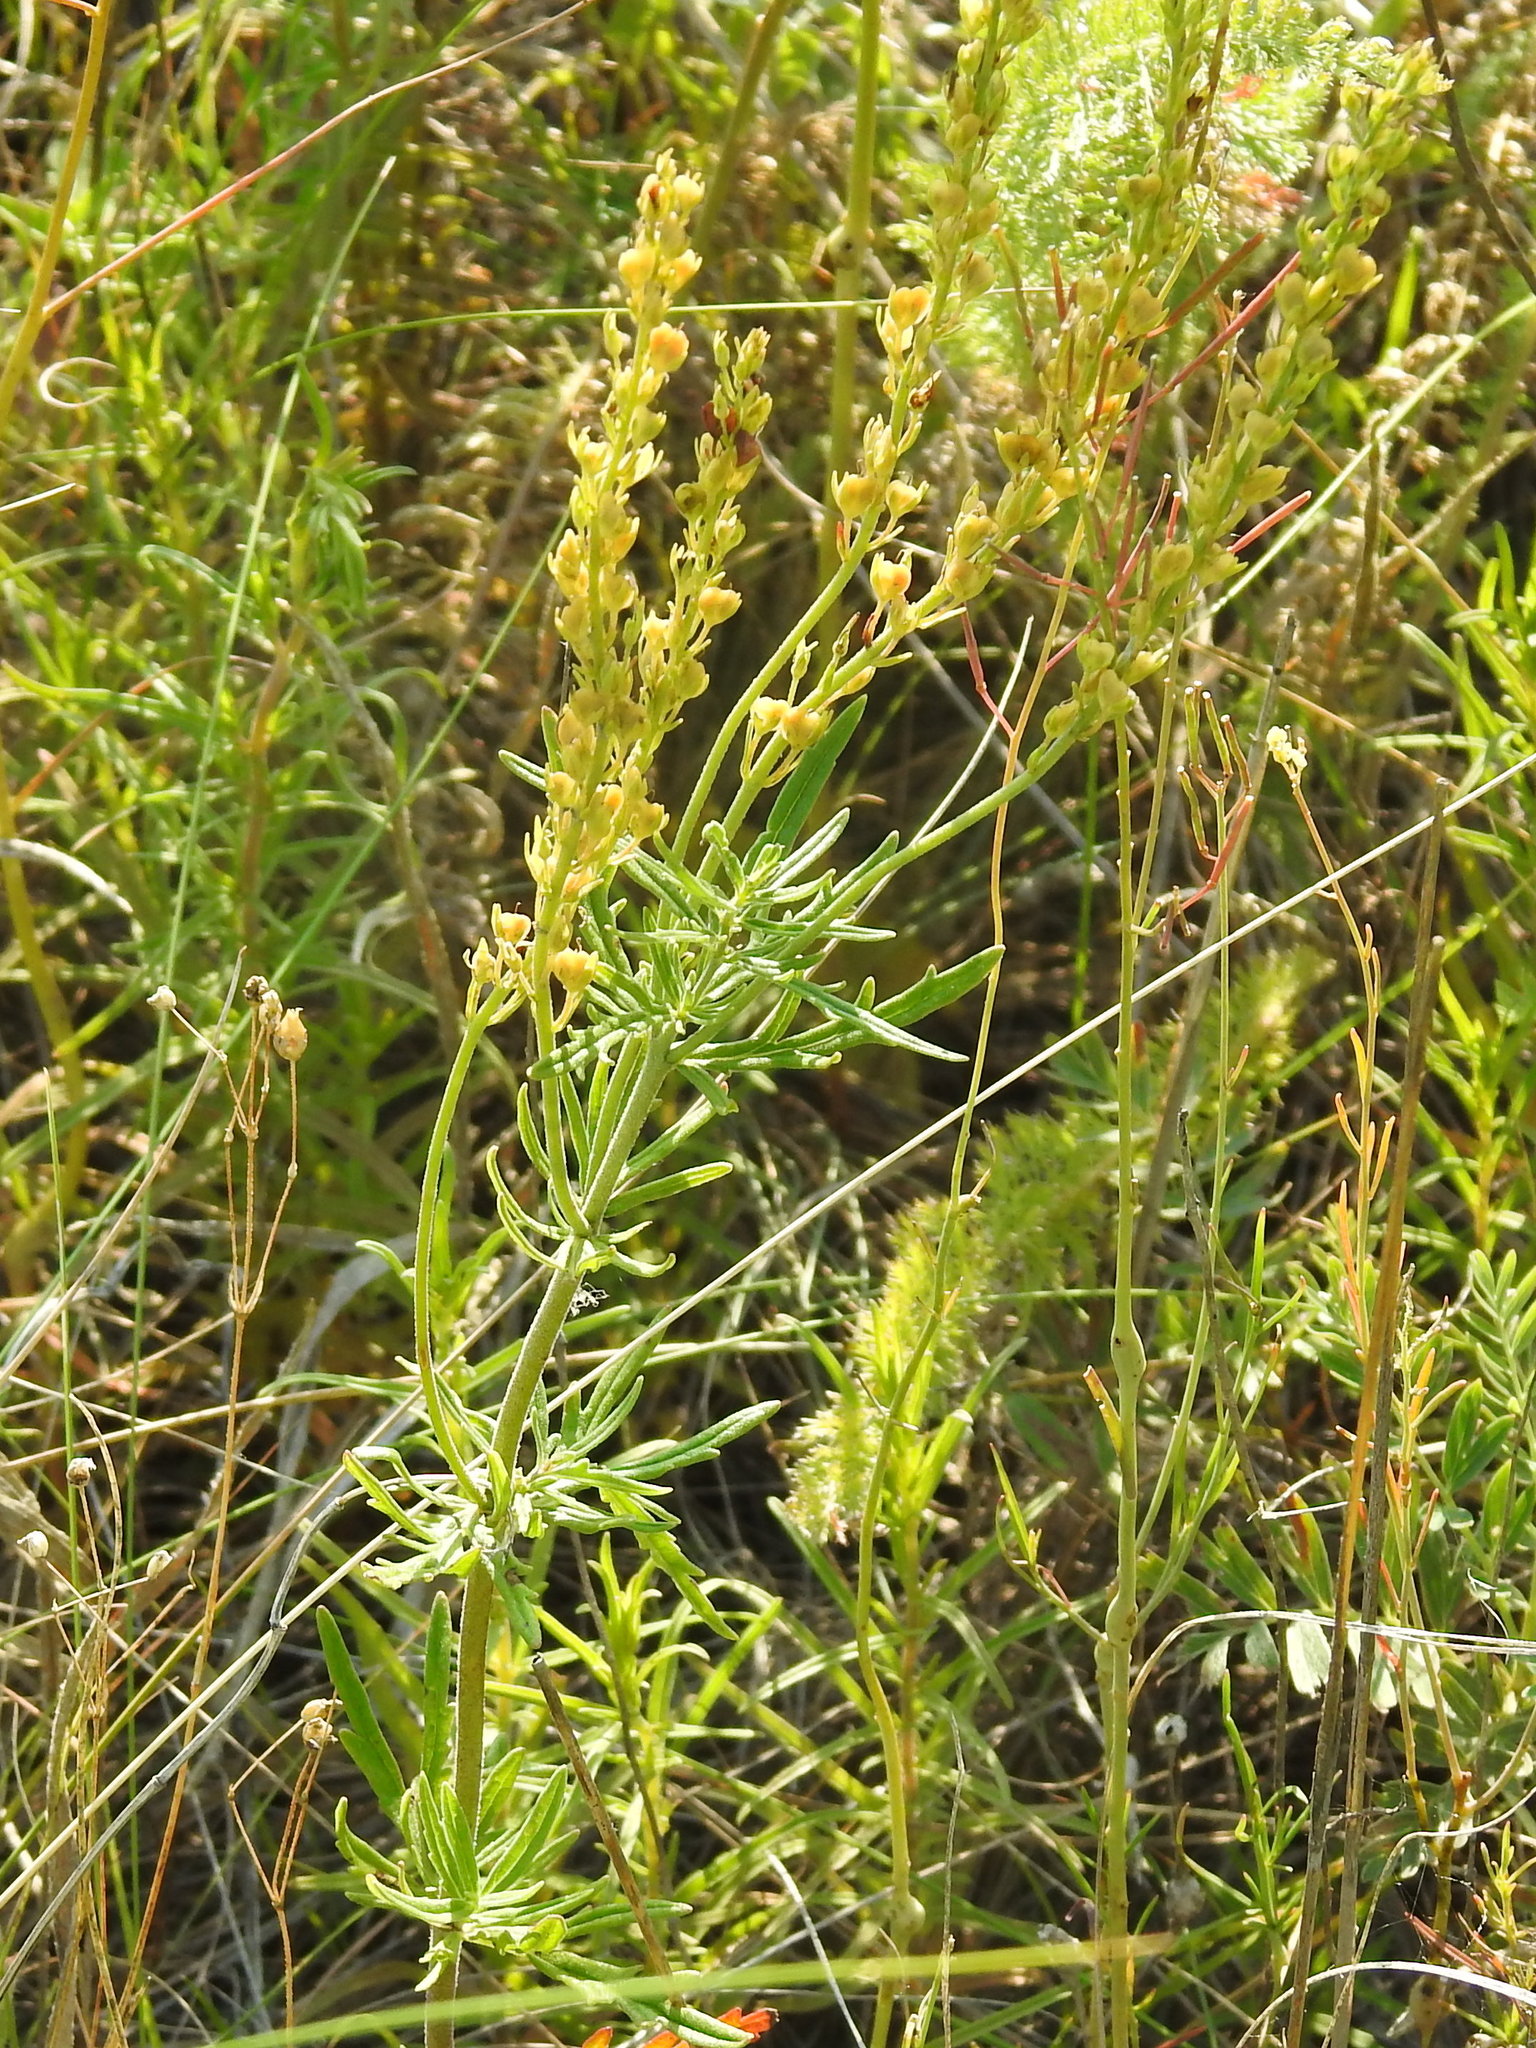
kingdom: Plantae
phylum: Tracheophyta
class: Magnoliopsida
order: Lamiales
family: Plantaginaceae
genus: Veronica
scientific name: Veronica austriaca
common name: Large speedwell
